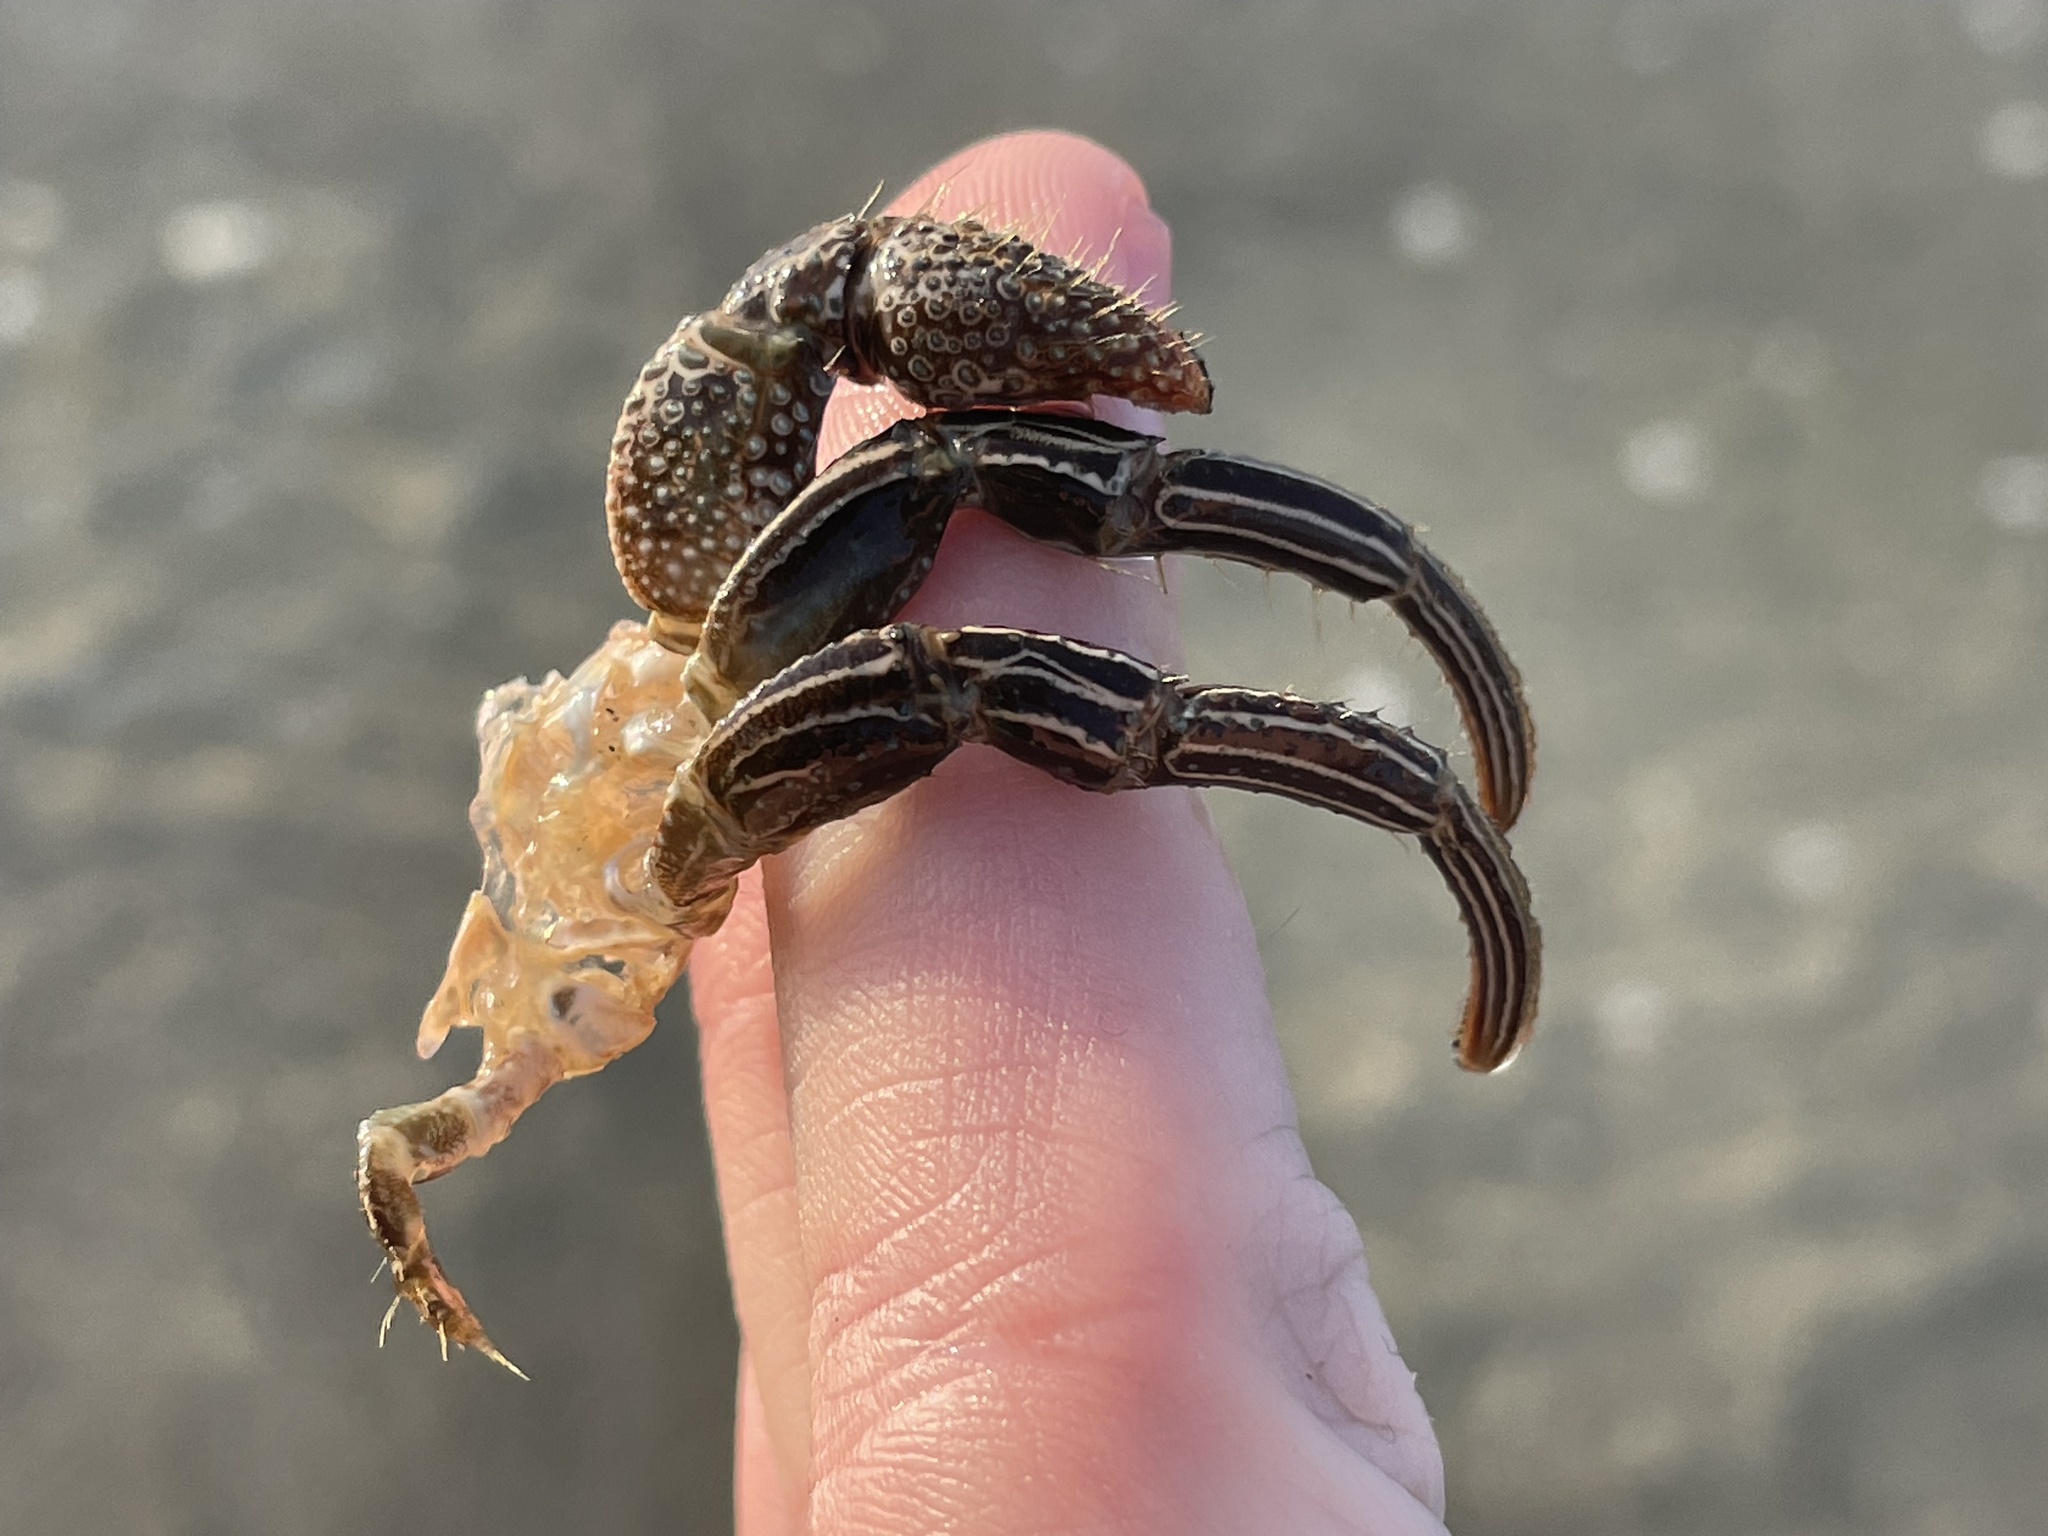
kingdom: Animalia
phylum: Arthropoda
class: Malacostraca
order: Decapoda
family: Diogenidae
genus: Clibanarius
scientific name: Clibanarius vittatus
